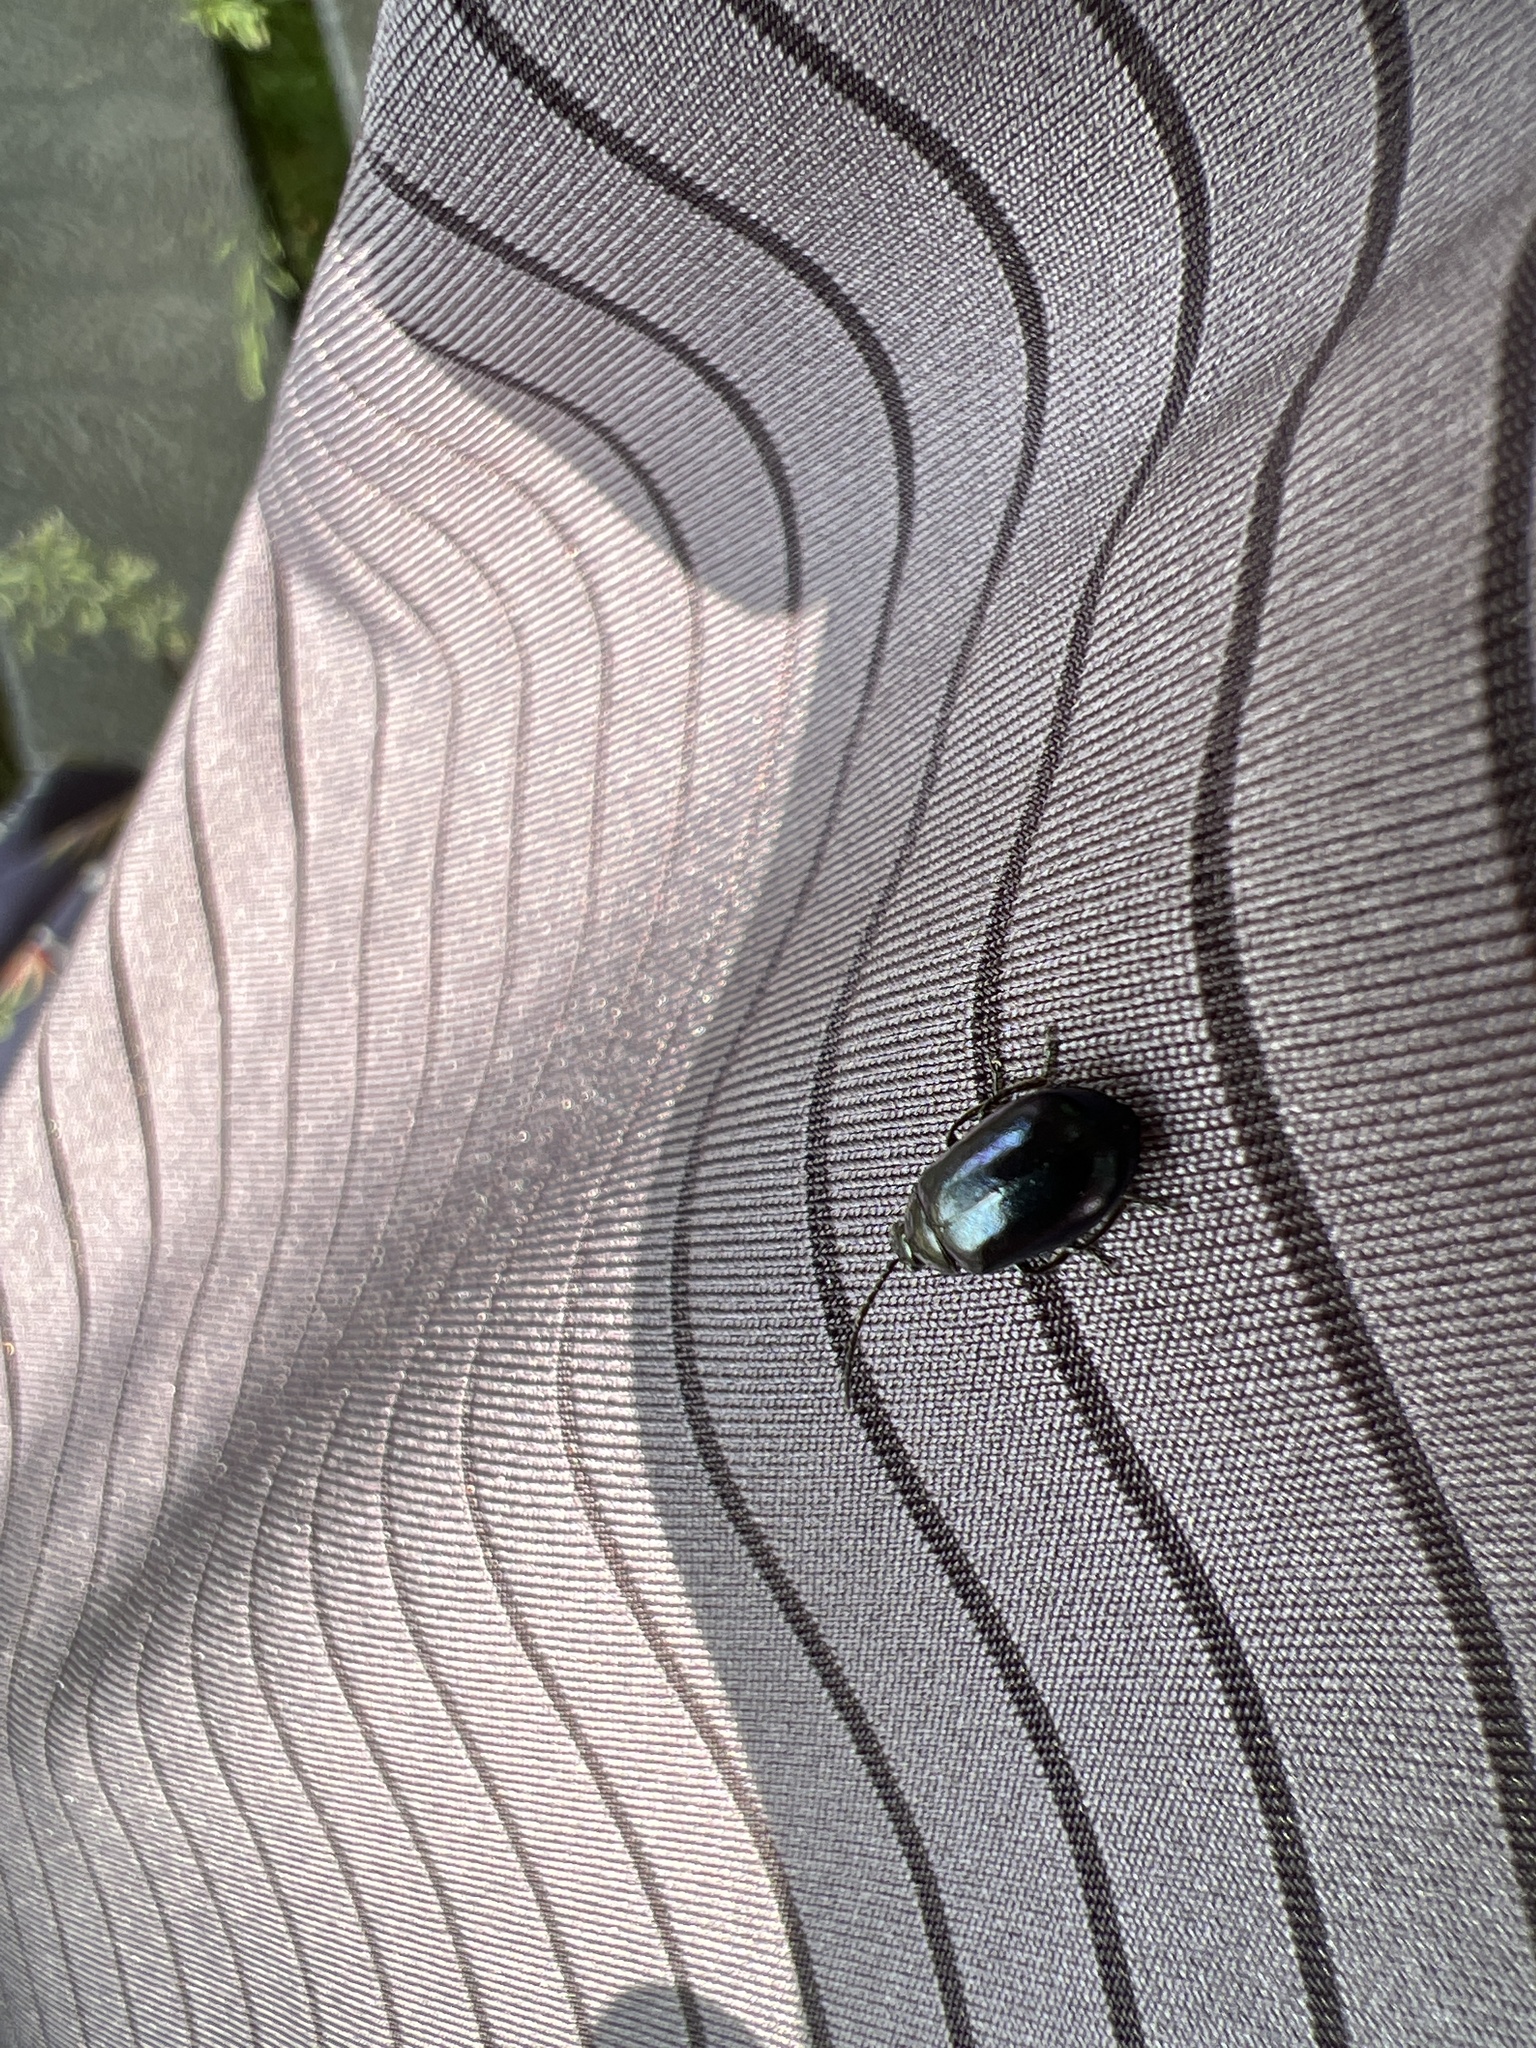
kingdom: Animalia
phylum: Arthropoda
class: Insecta
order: Coleoptera
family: Chrysomelidae
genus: Agelastica
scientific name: Agelastica alni
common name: Alder leaf beetle
